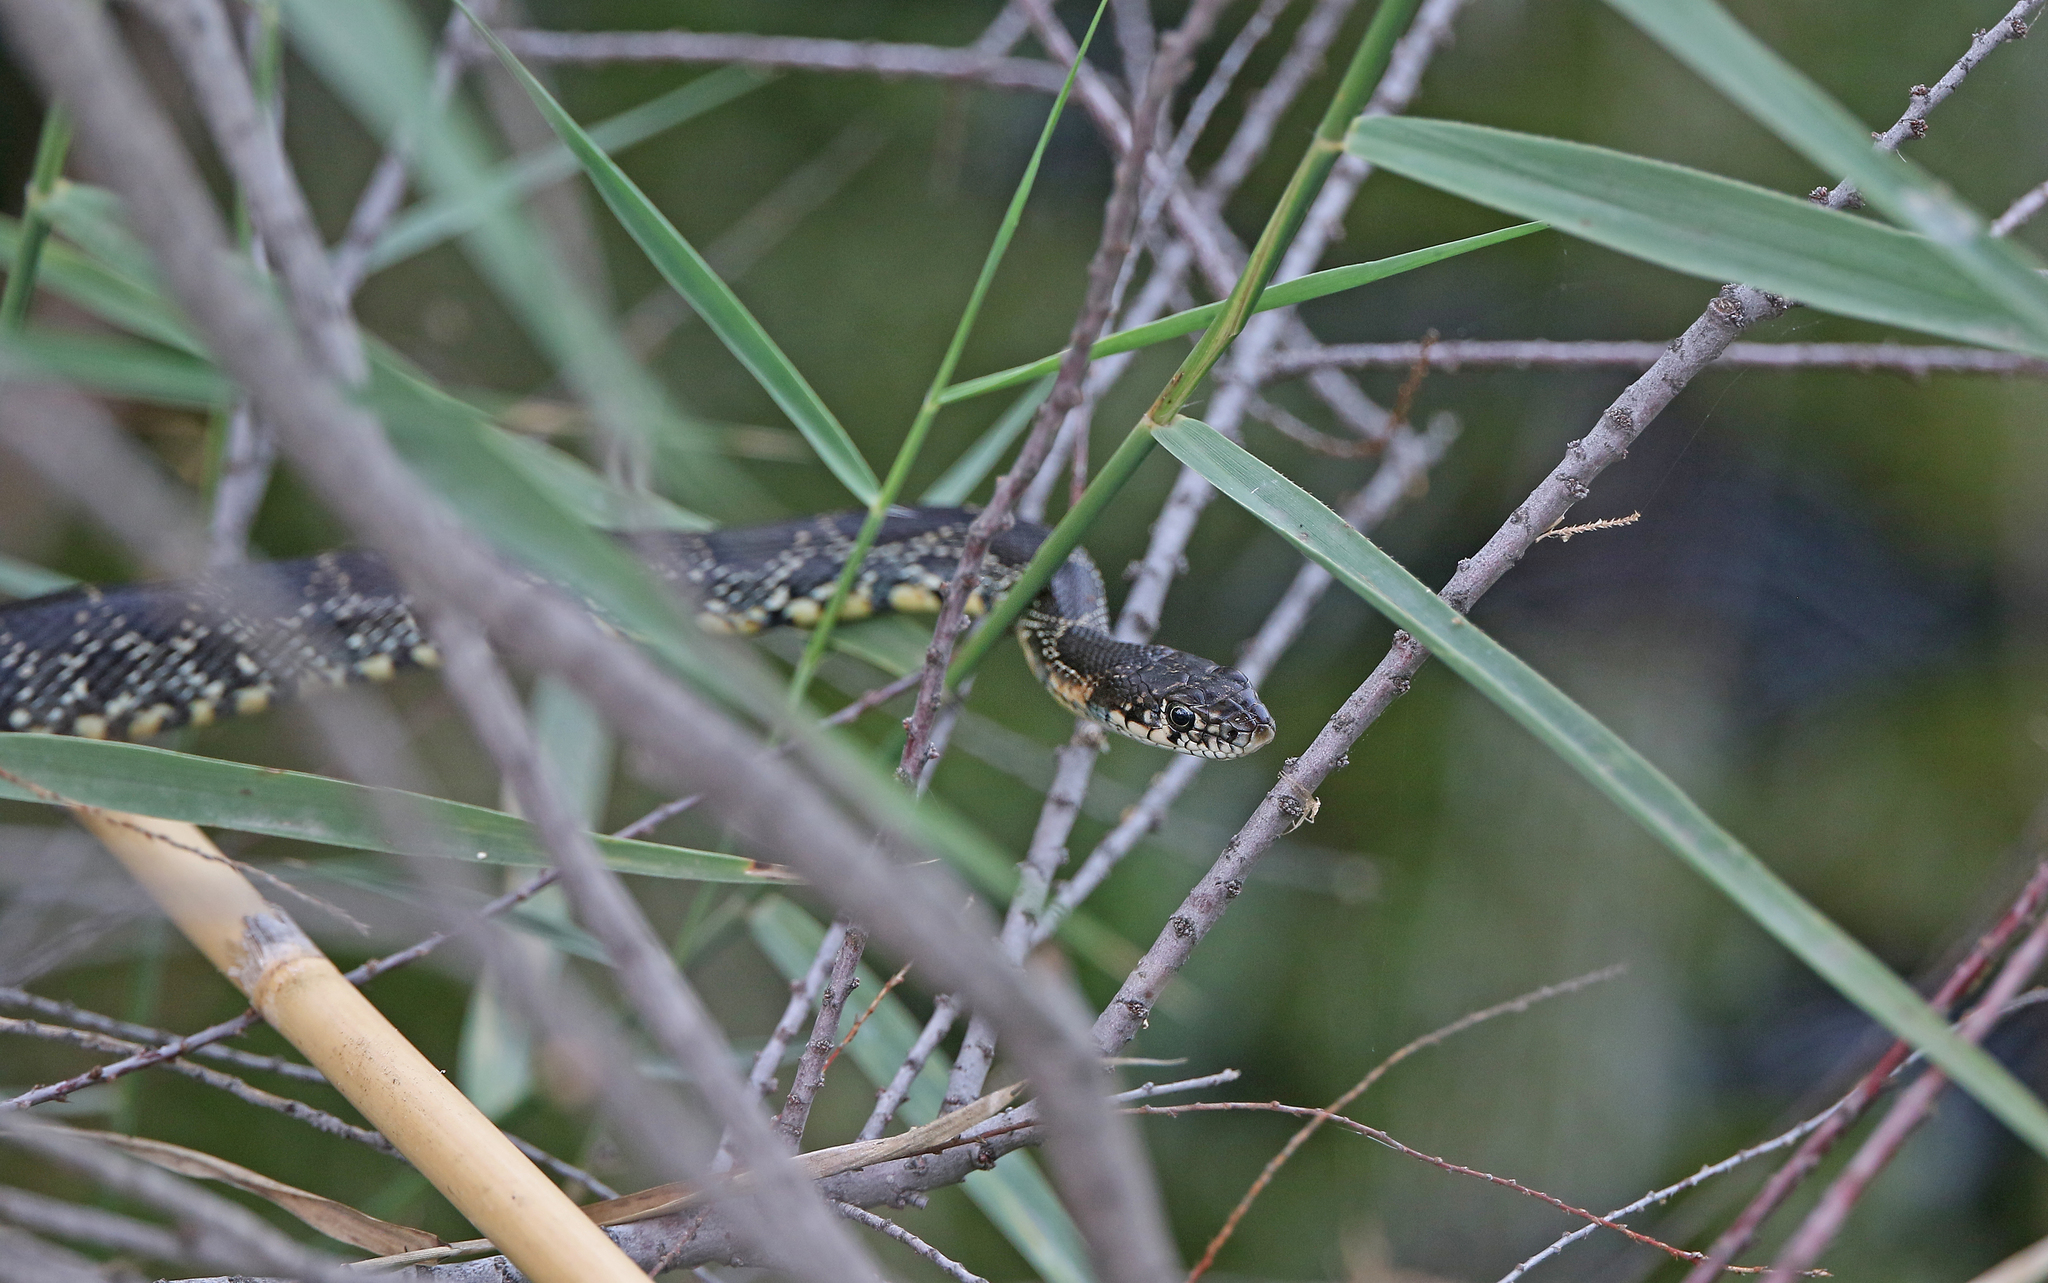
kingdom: Animalia
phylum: Chordata
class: Squamata
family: Colubridae
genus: Hemorrhois
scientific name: Hemorrhois hippocrepis
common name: Horseshoe whip snake
